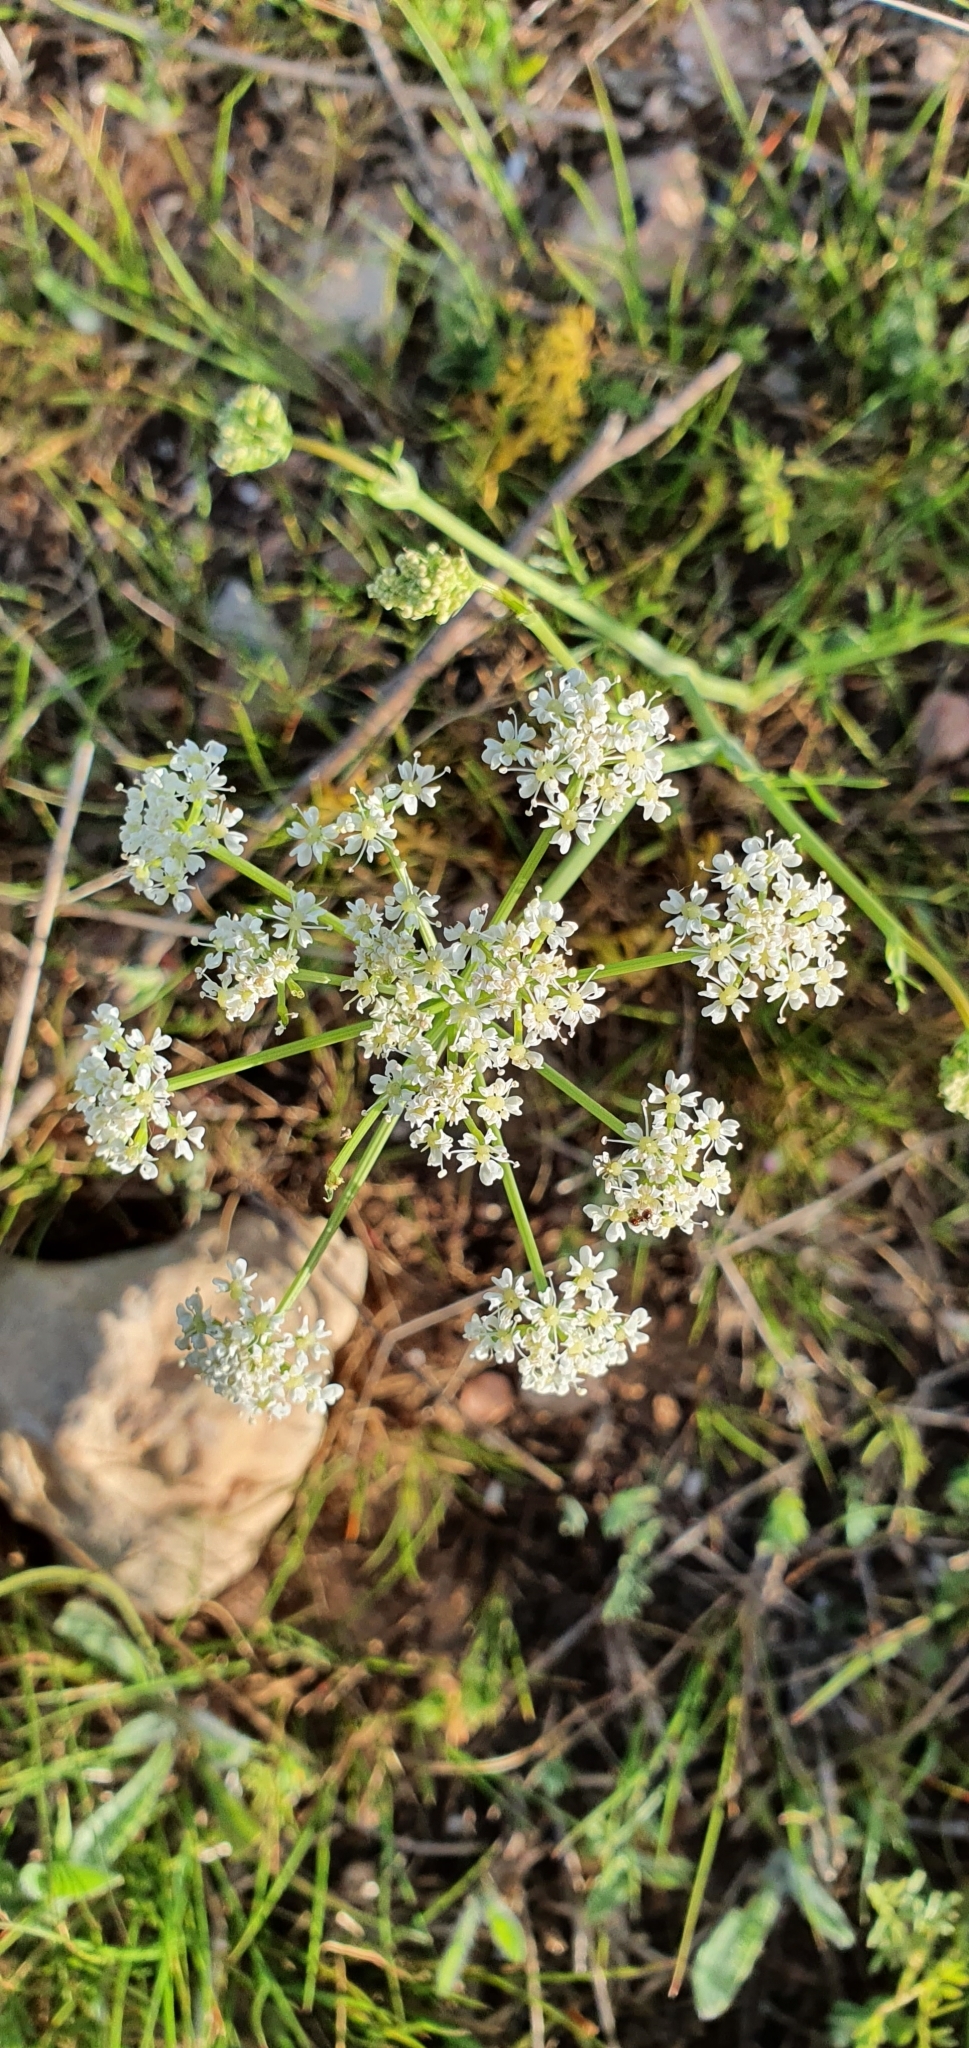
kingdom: Plantae
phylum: Tracheophyta
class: Magnoliopsida
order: Apiales
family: Apiaceae
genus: Bunium
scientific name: Bunium pachypodum
